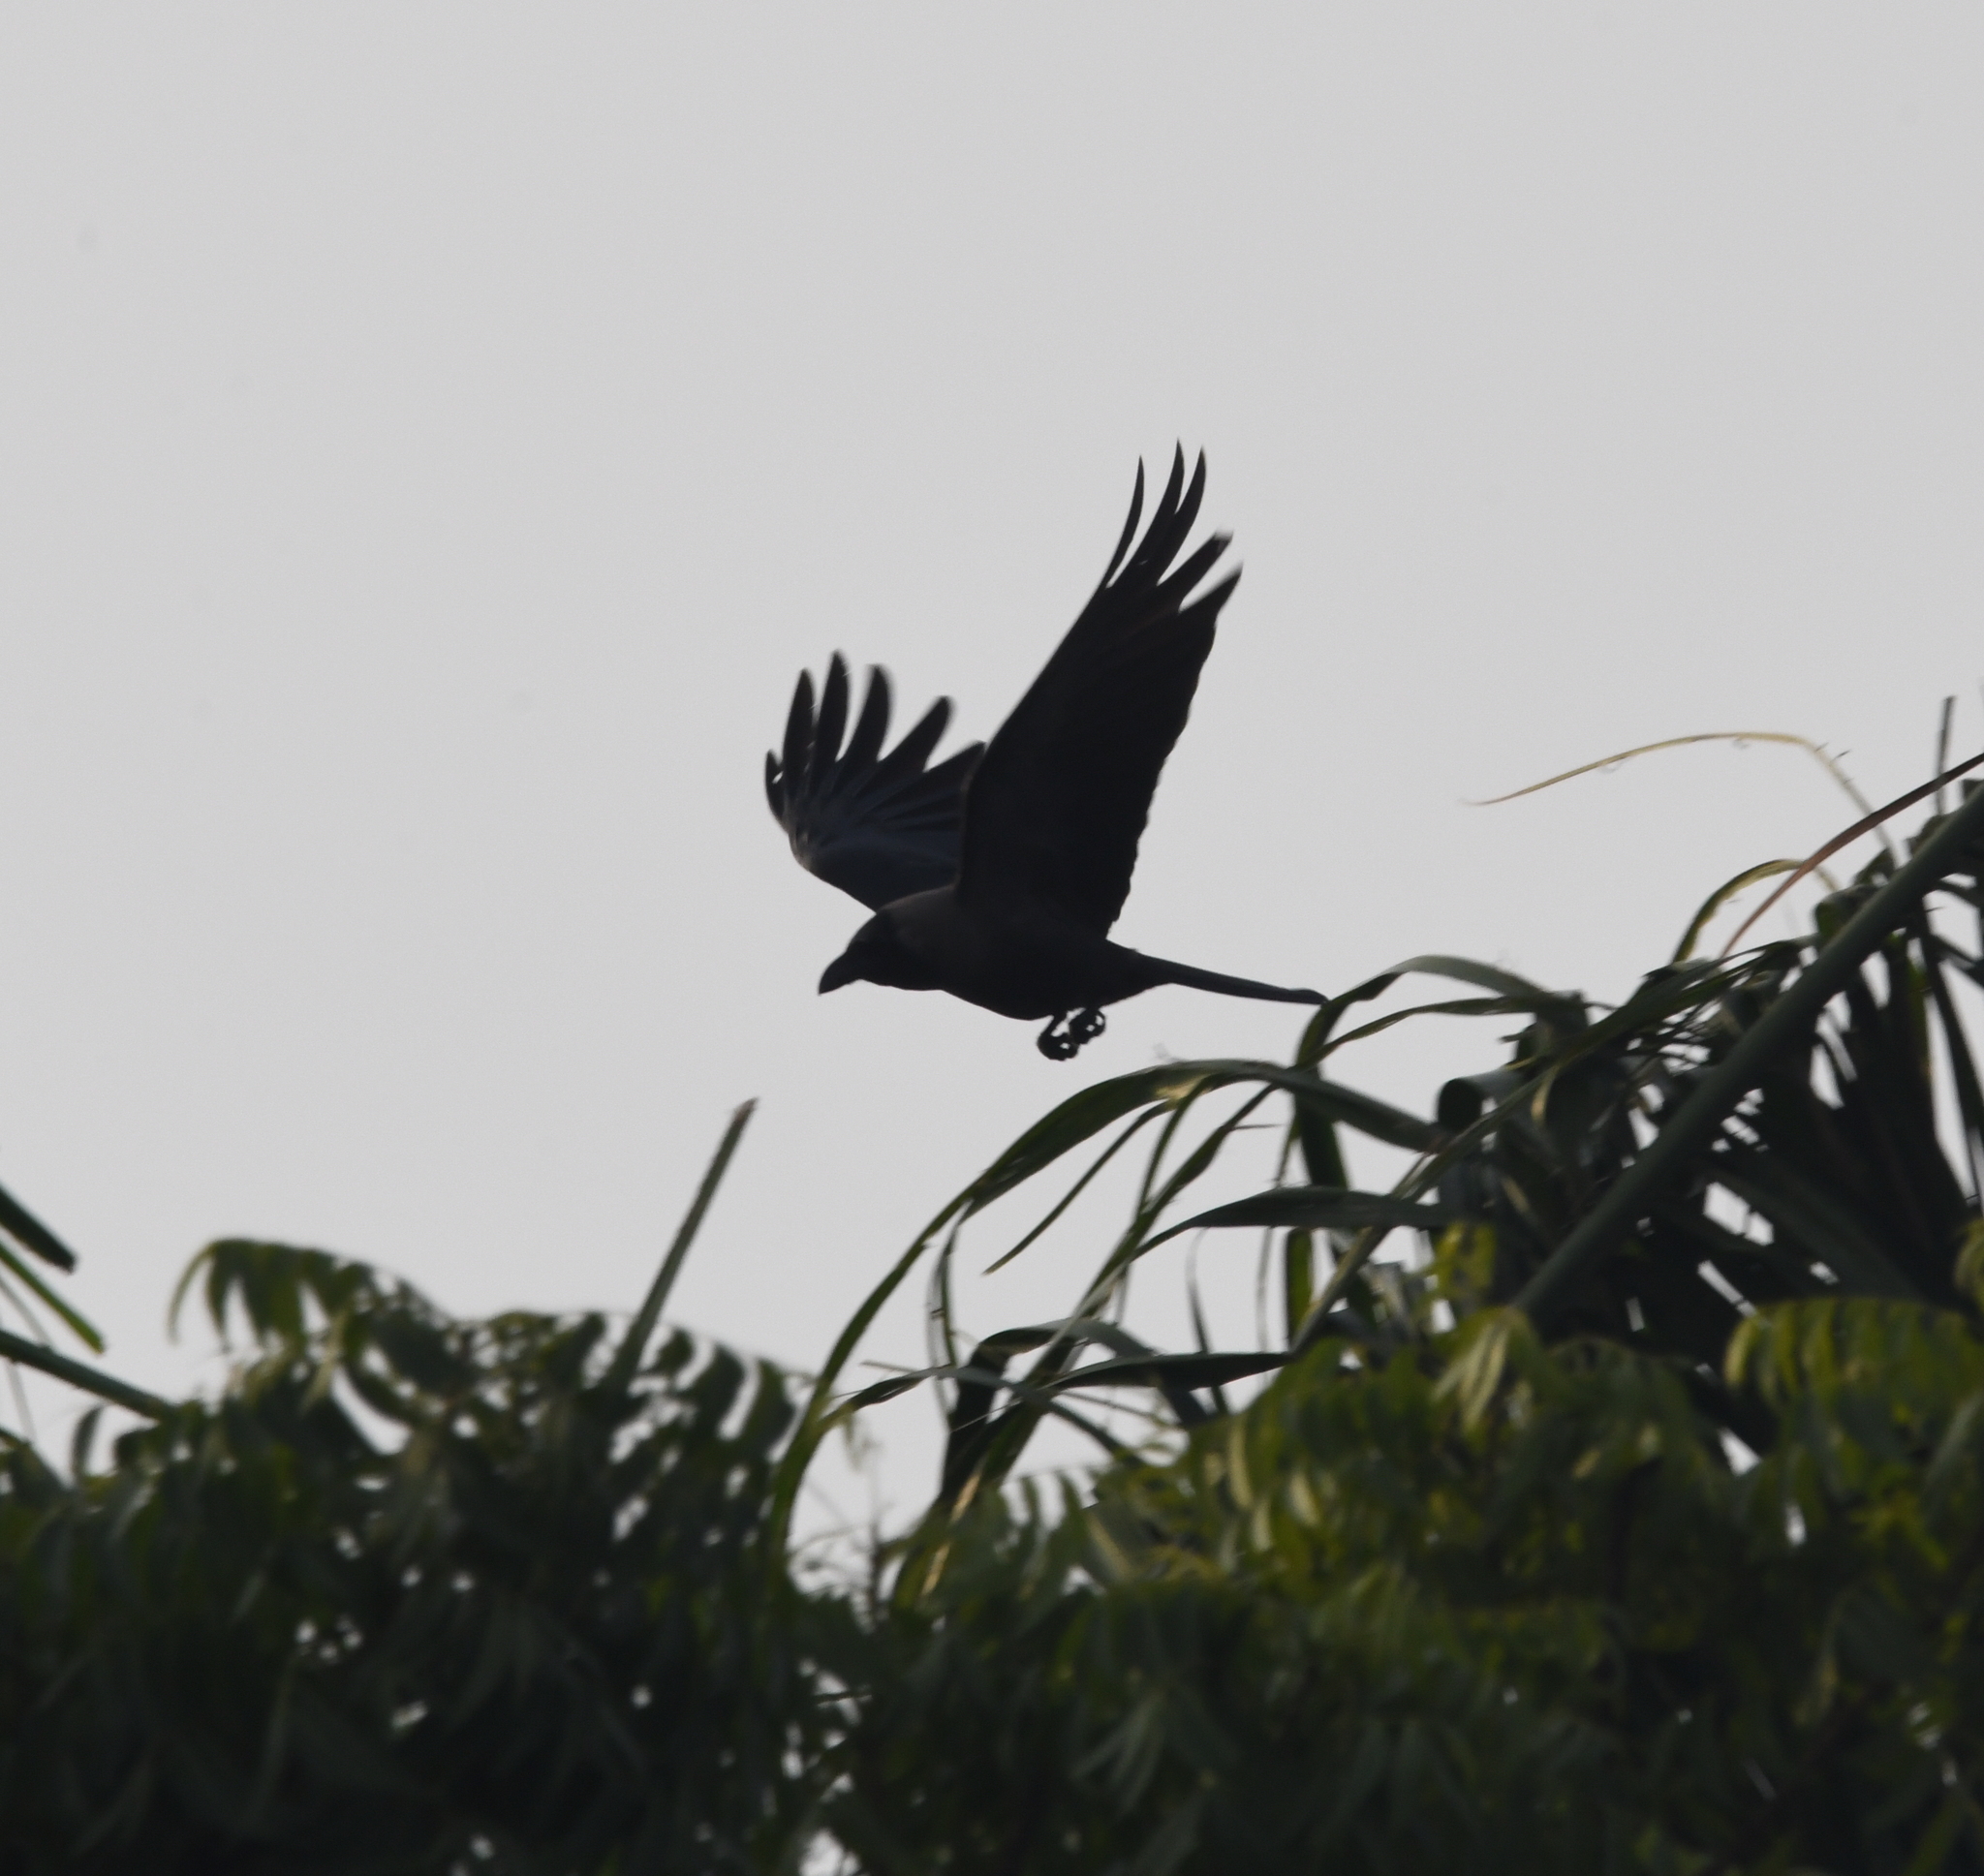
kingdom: Animalia
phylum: Chordata
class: Aves
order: Passeriformes
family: Corvidae
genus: Corvus
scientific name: Corvus splendens
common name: House crow
